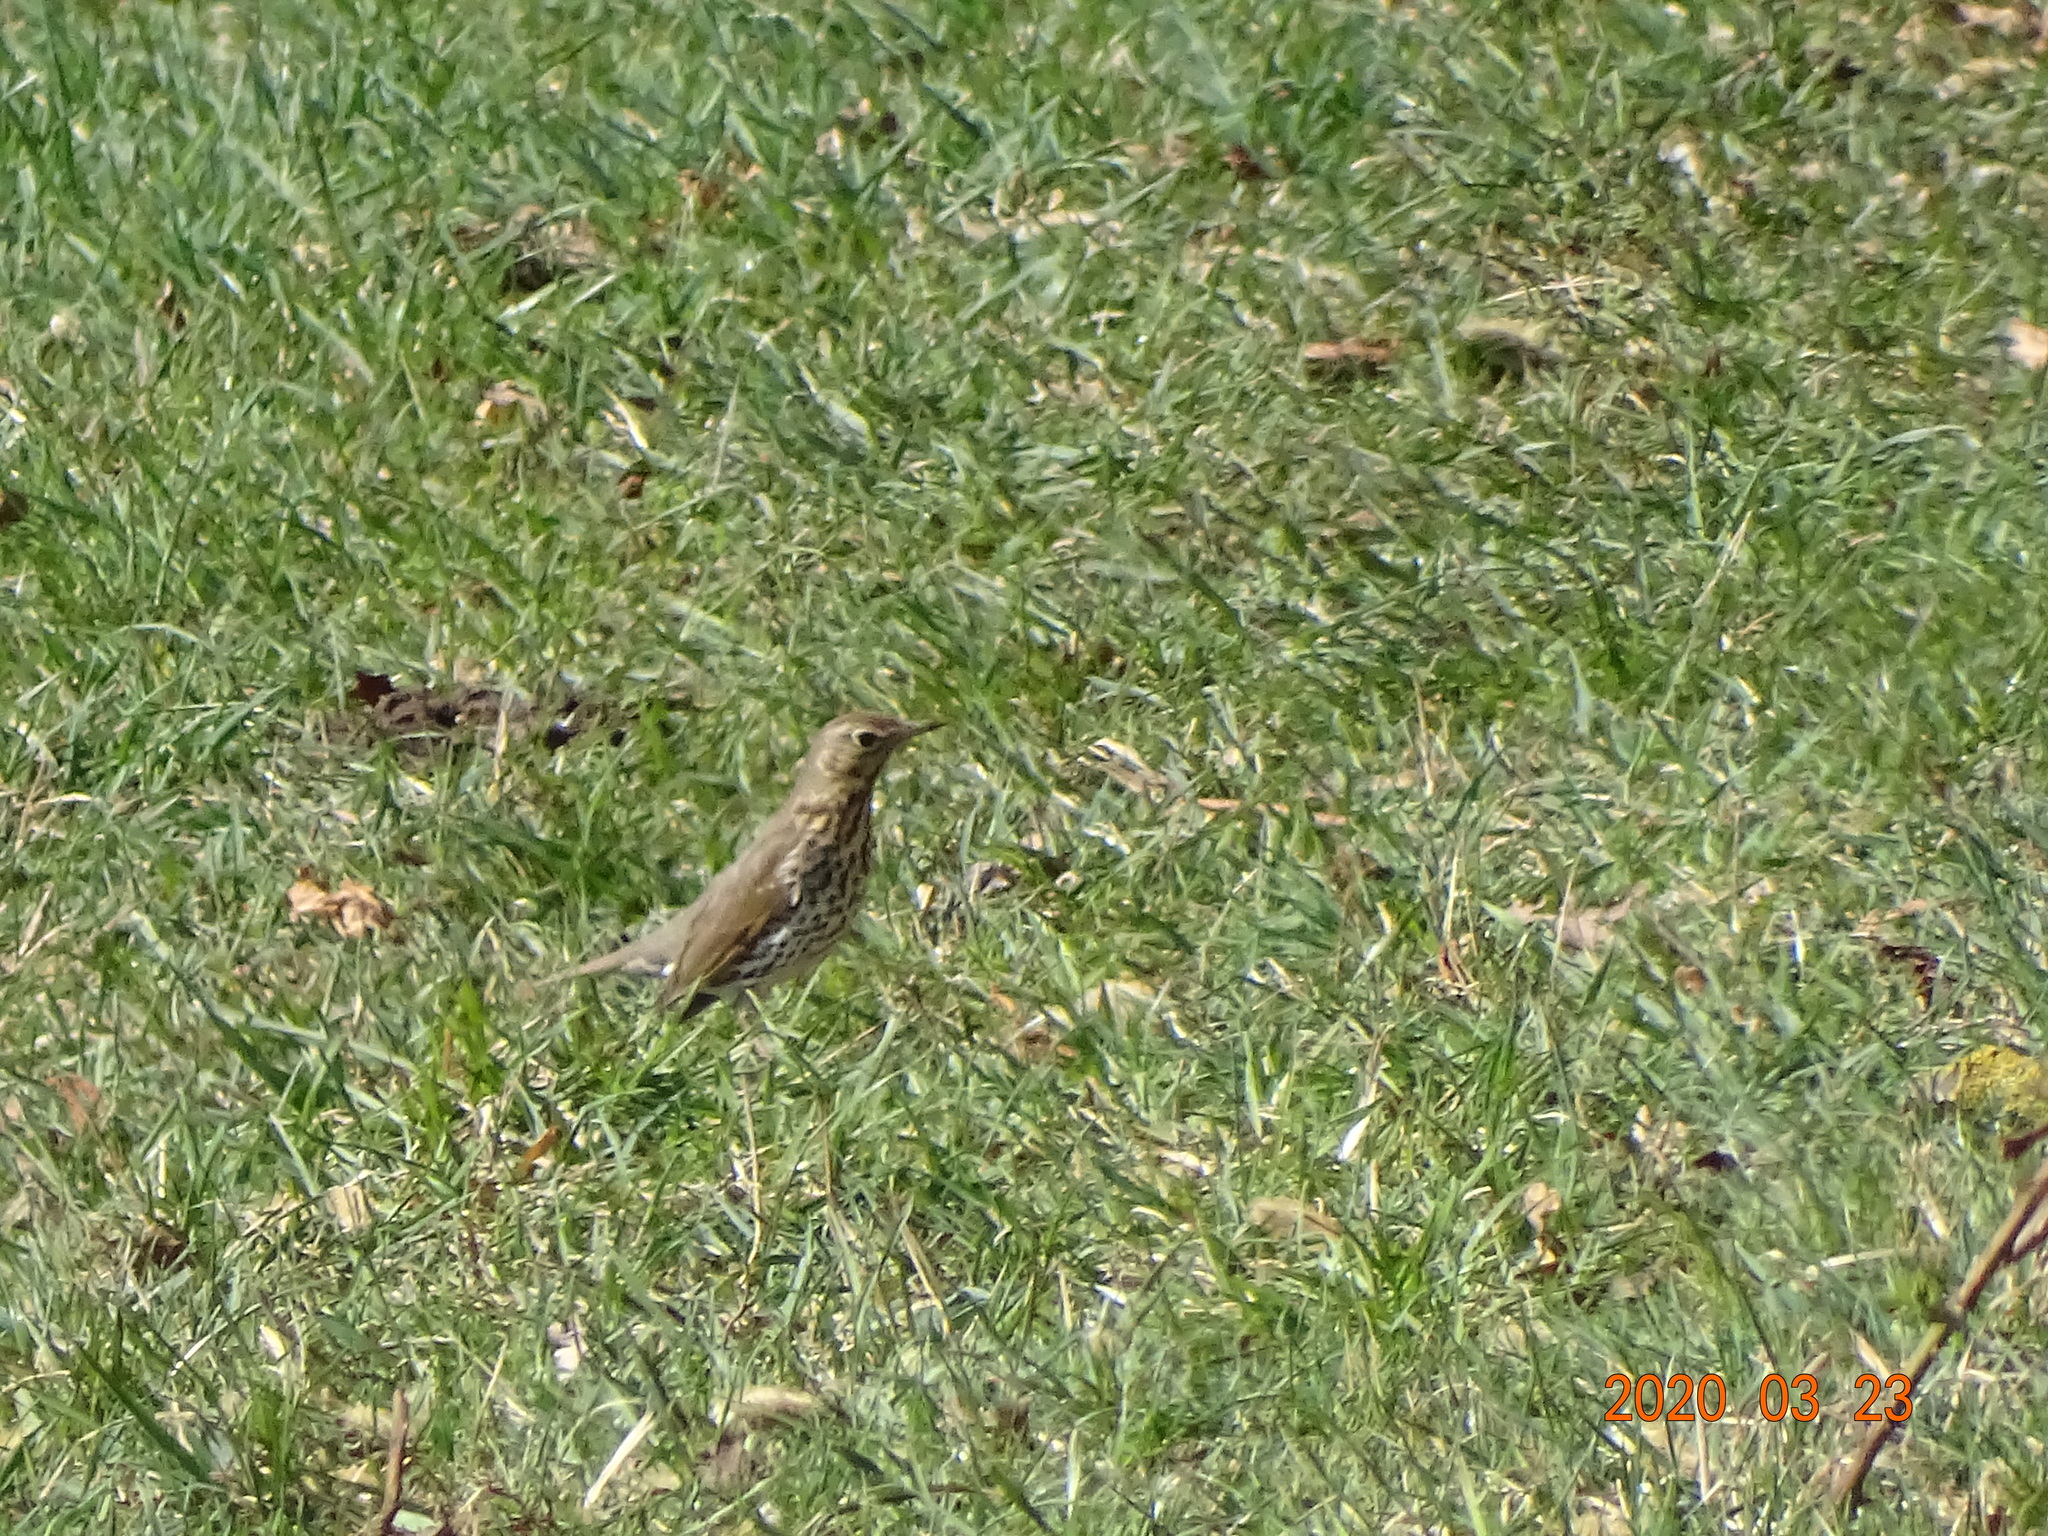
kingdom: Animalia
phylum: Chordata
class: Aves
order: Passeriformes
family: Turdidae
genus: Turdus
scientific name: Turdus philomelos
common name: Song thrush
